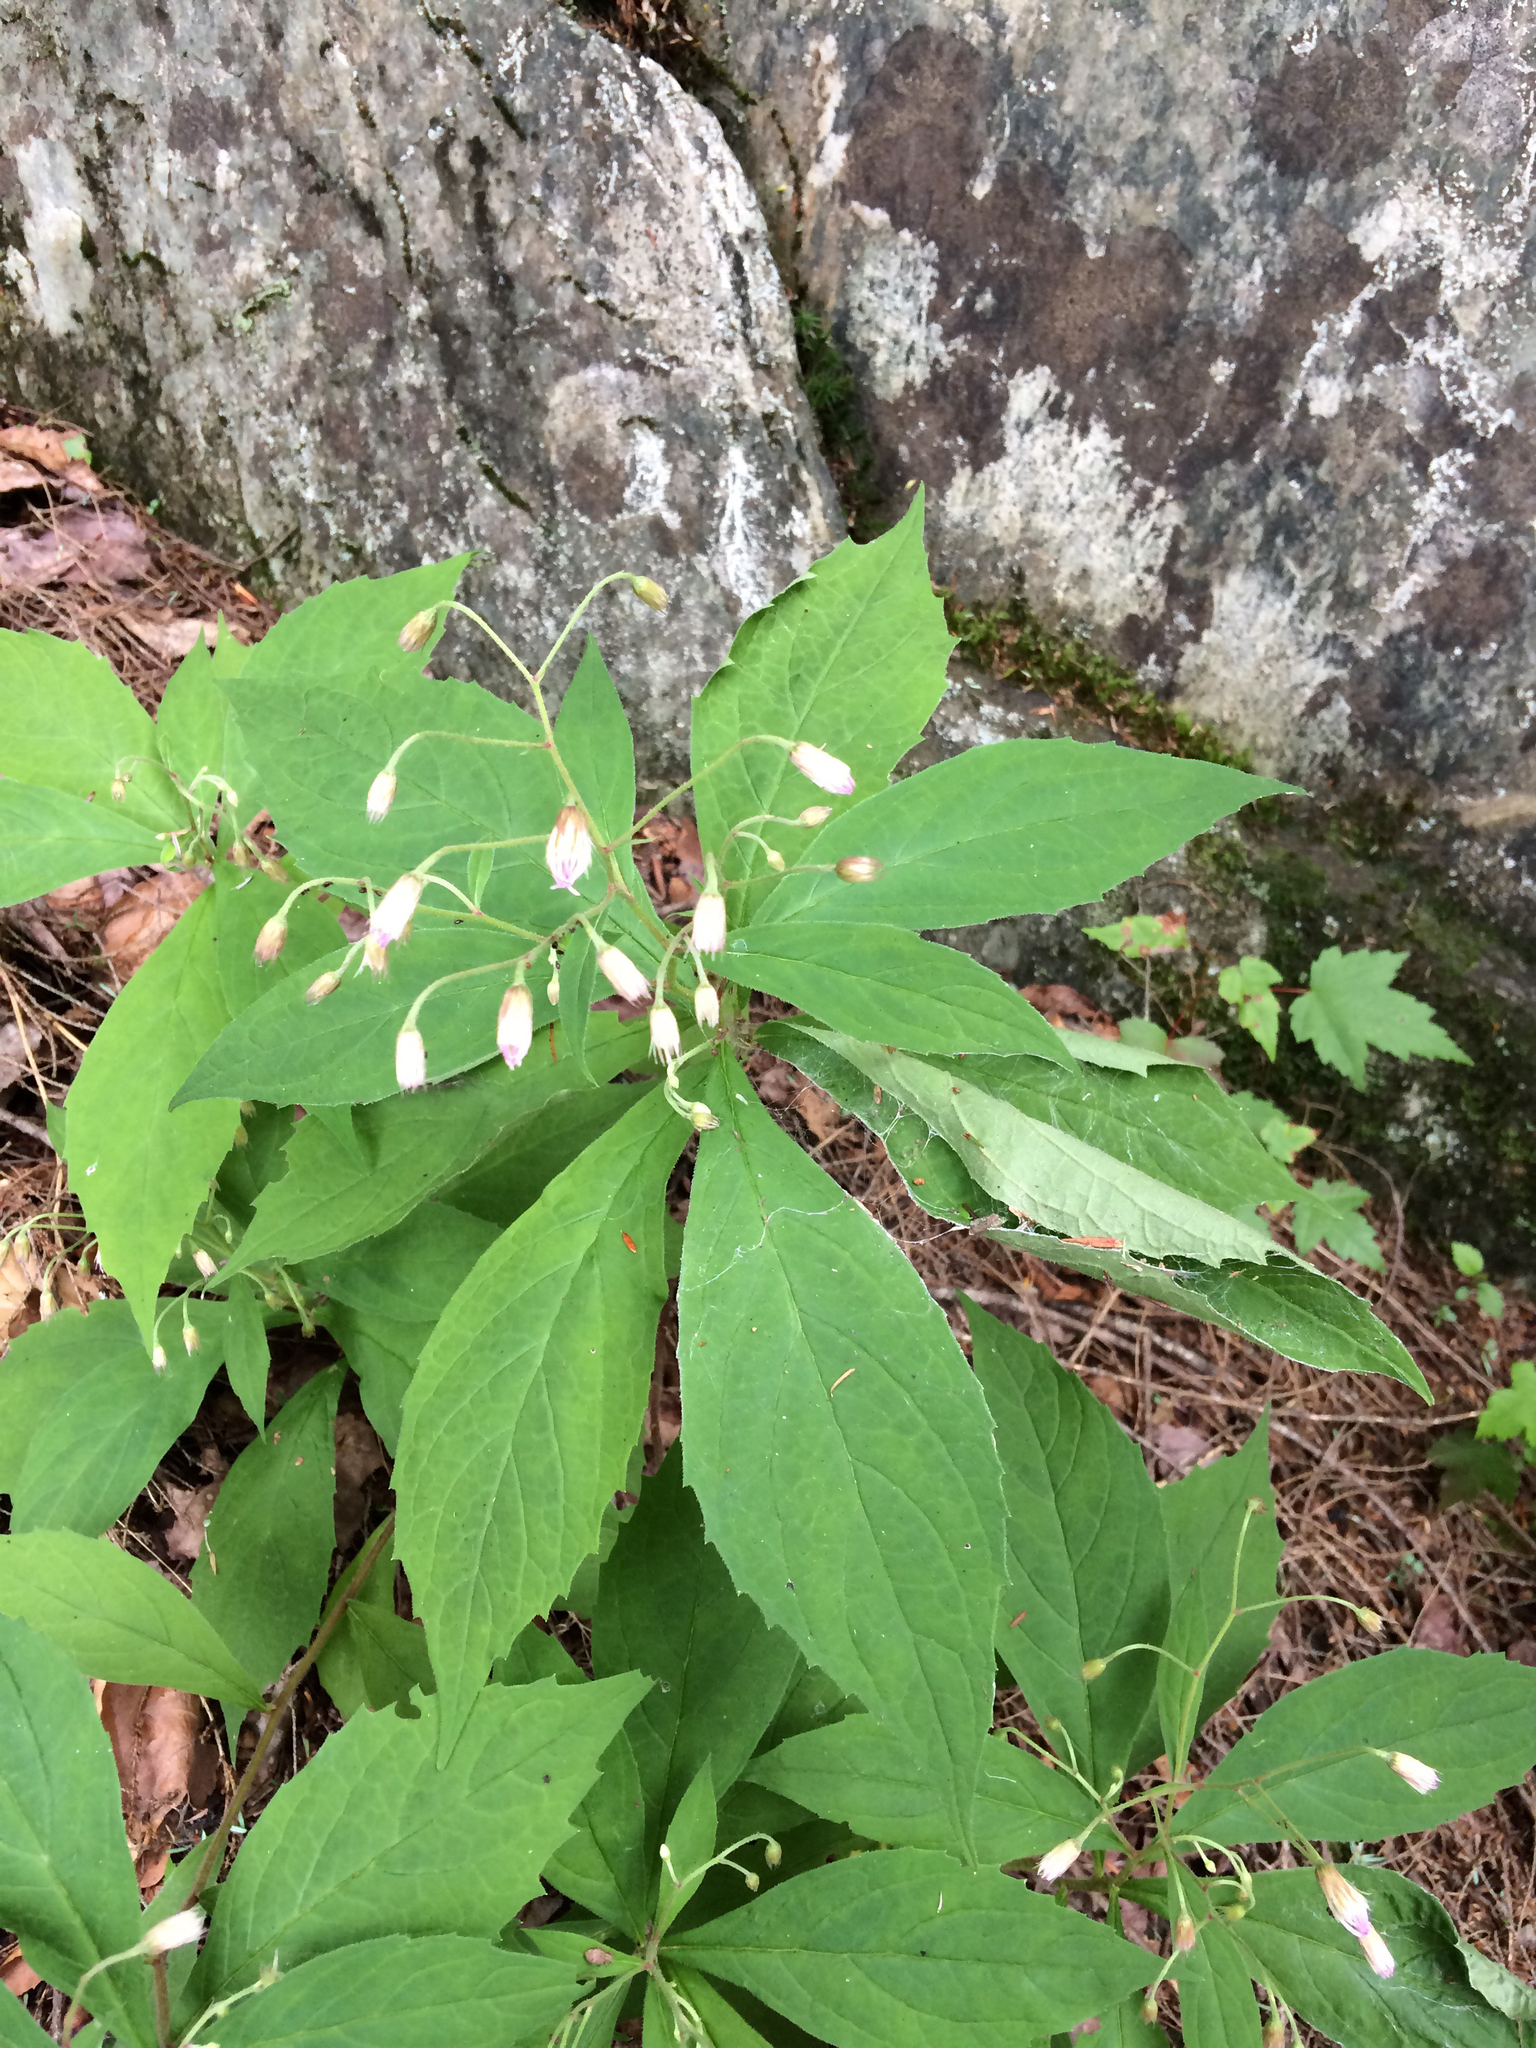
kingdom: Plantae
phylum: Tracheophyta
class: Magnoliopsida
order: Asterales
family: Asteraceae
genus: Oclemena
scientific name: Oclemena acuminata
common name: Mountain aster
